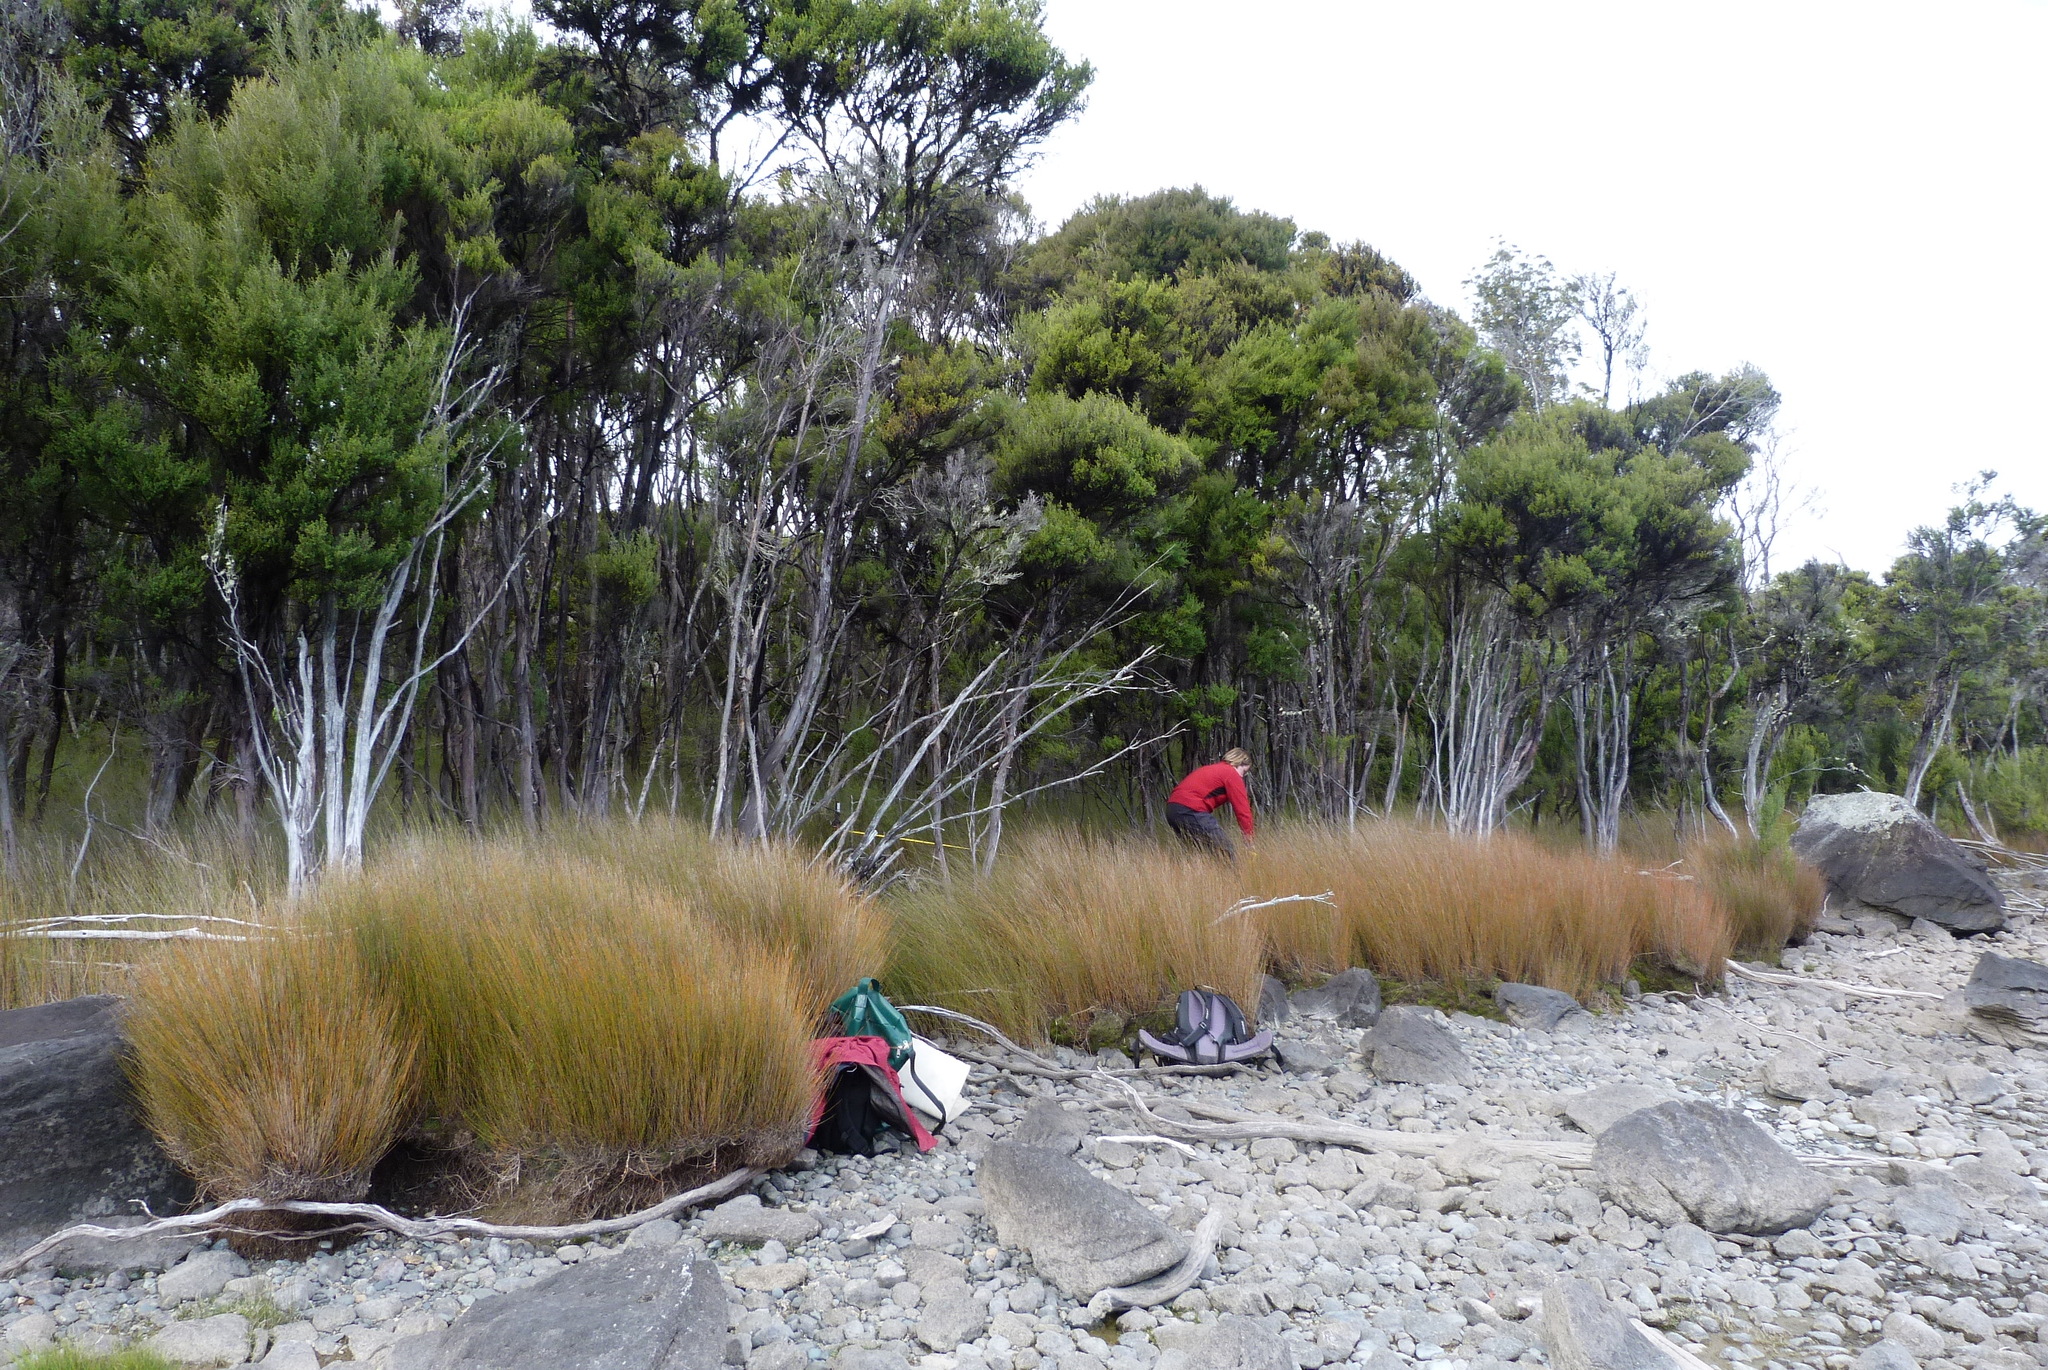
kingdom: Plantae
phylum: Tracheophyta
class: Liliopsida
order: Poales
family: Restionaceae
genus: Apodasmia
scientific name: Apodasmia similis
